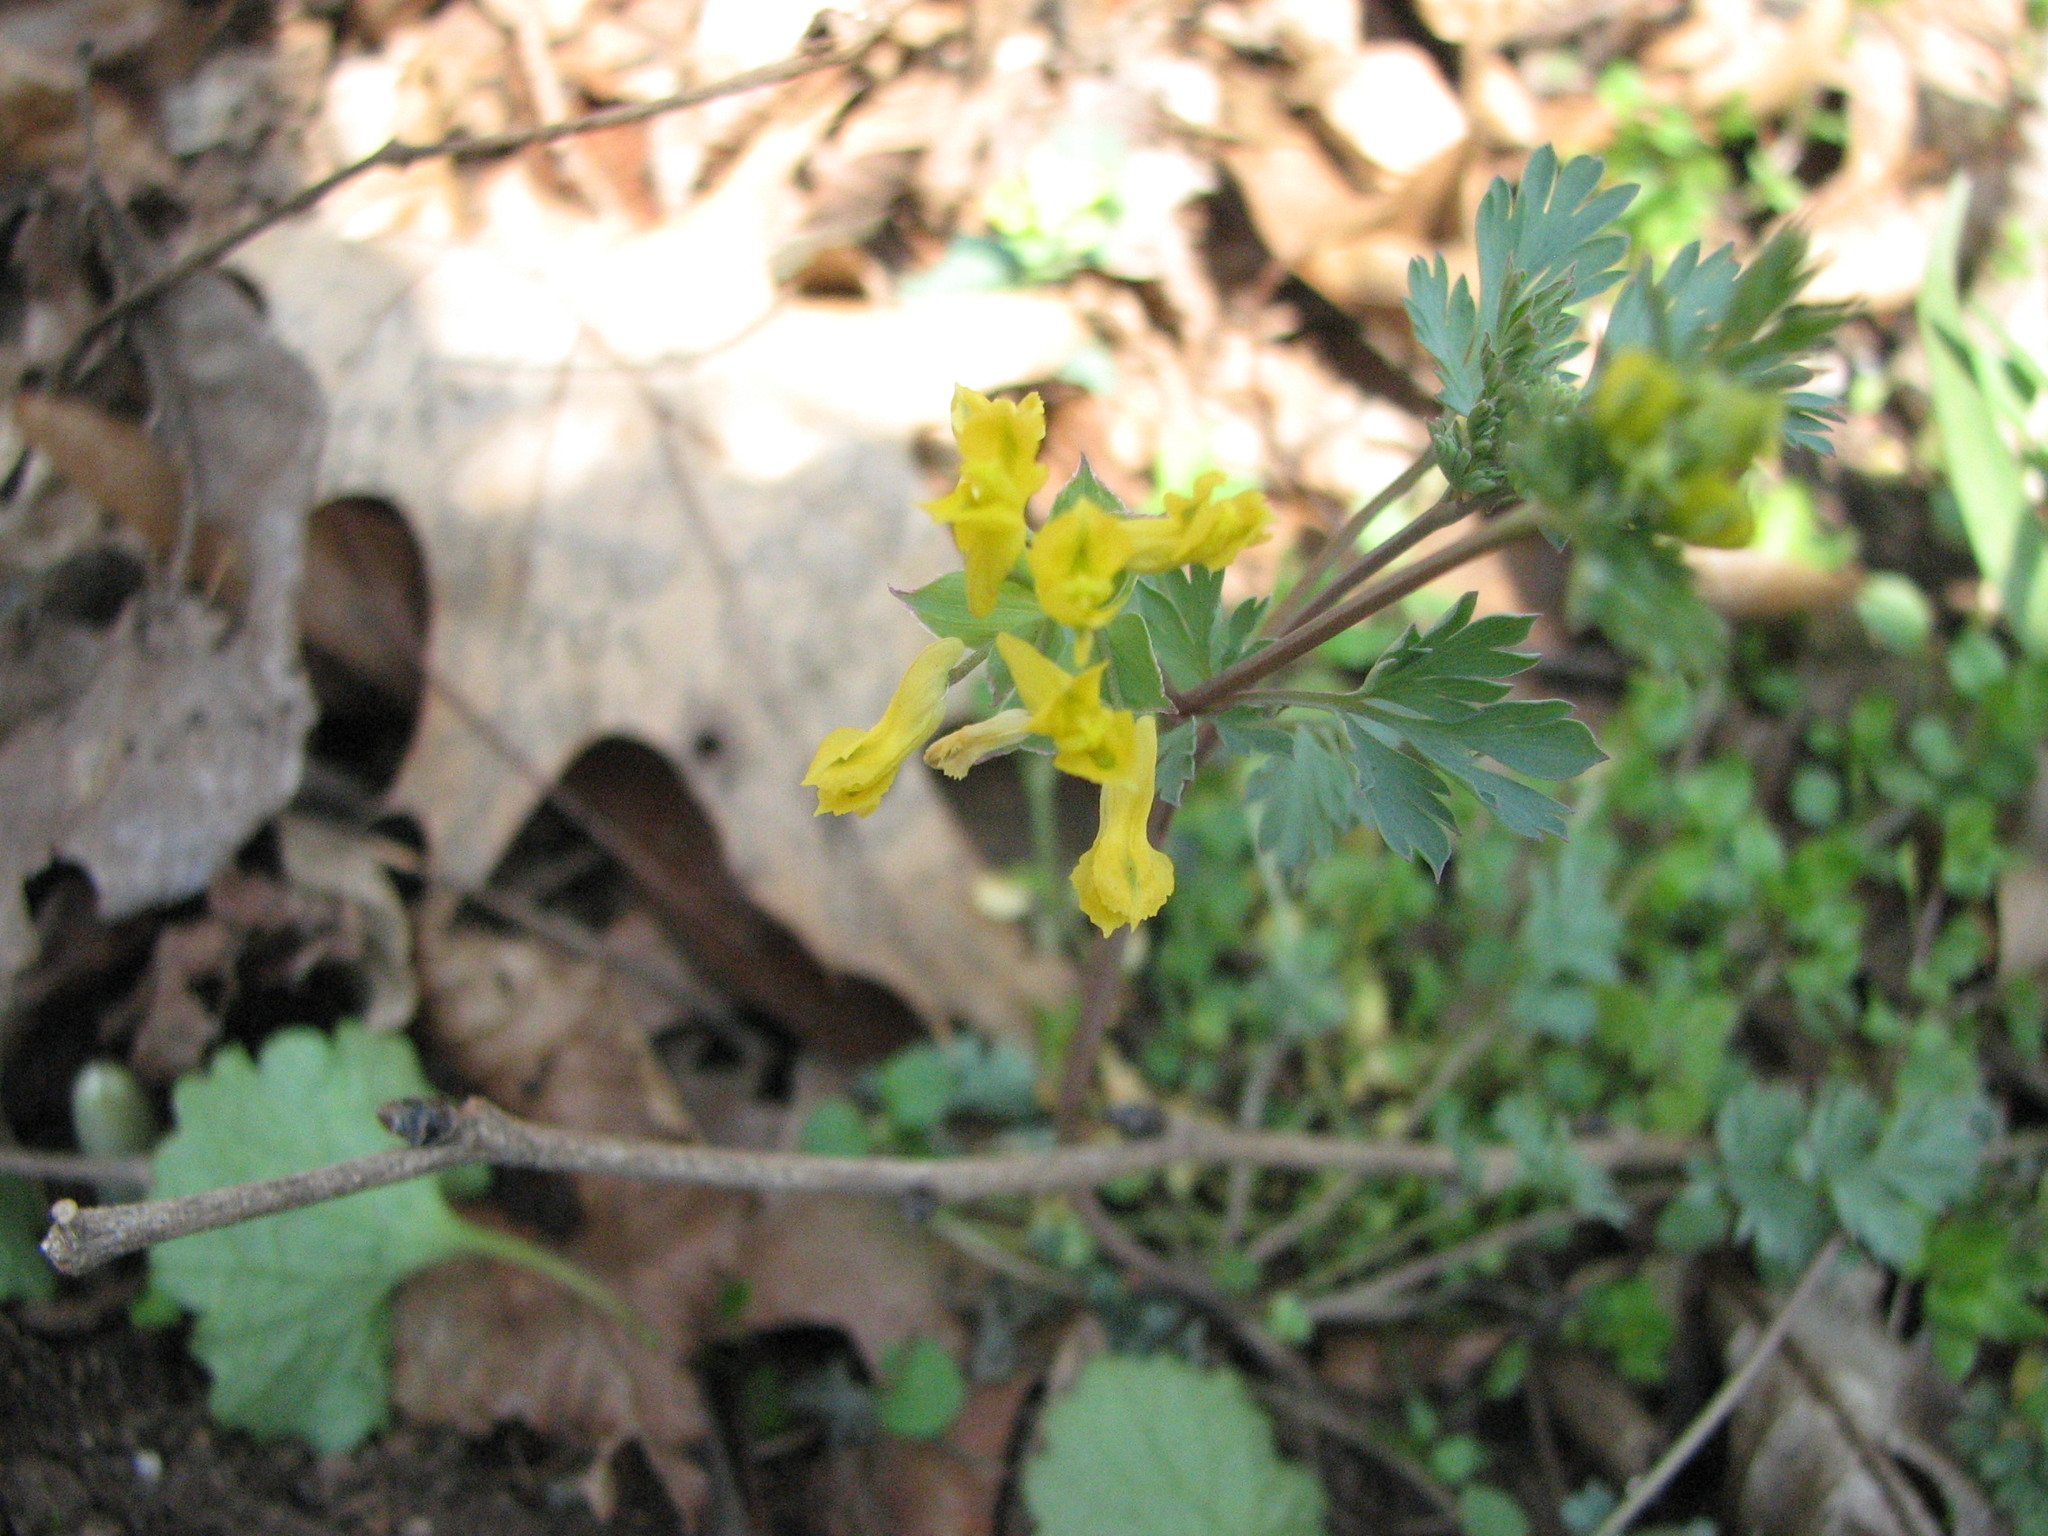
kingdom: Plantae
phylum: Tracheophyta
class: Magnoliopsida
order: Ranunculales
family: Papaveraceae
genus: Corydalis
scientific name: Corydalis flavula
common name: Yellow corydalis
